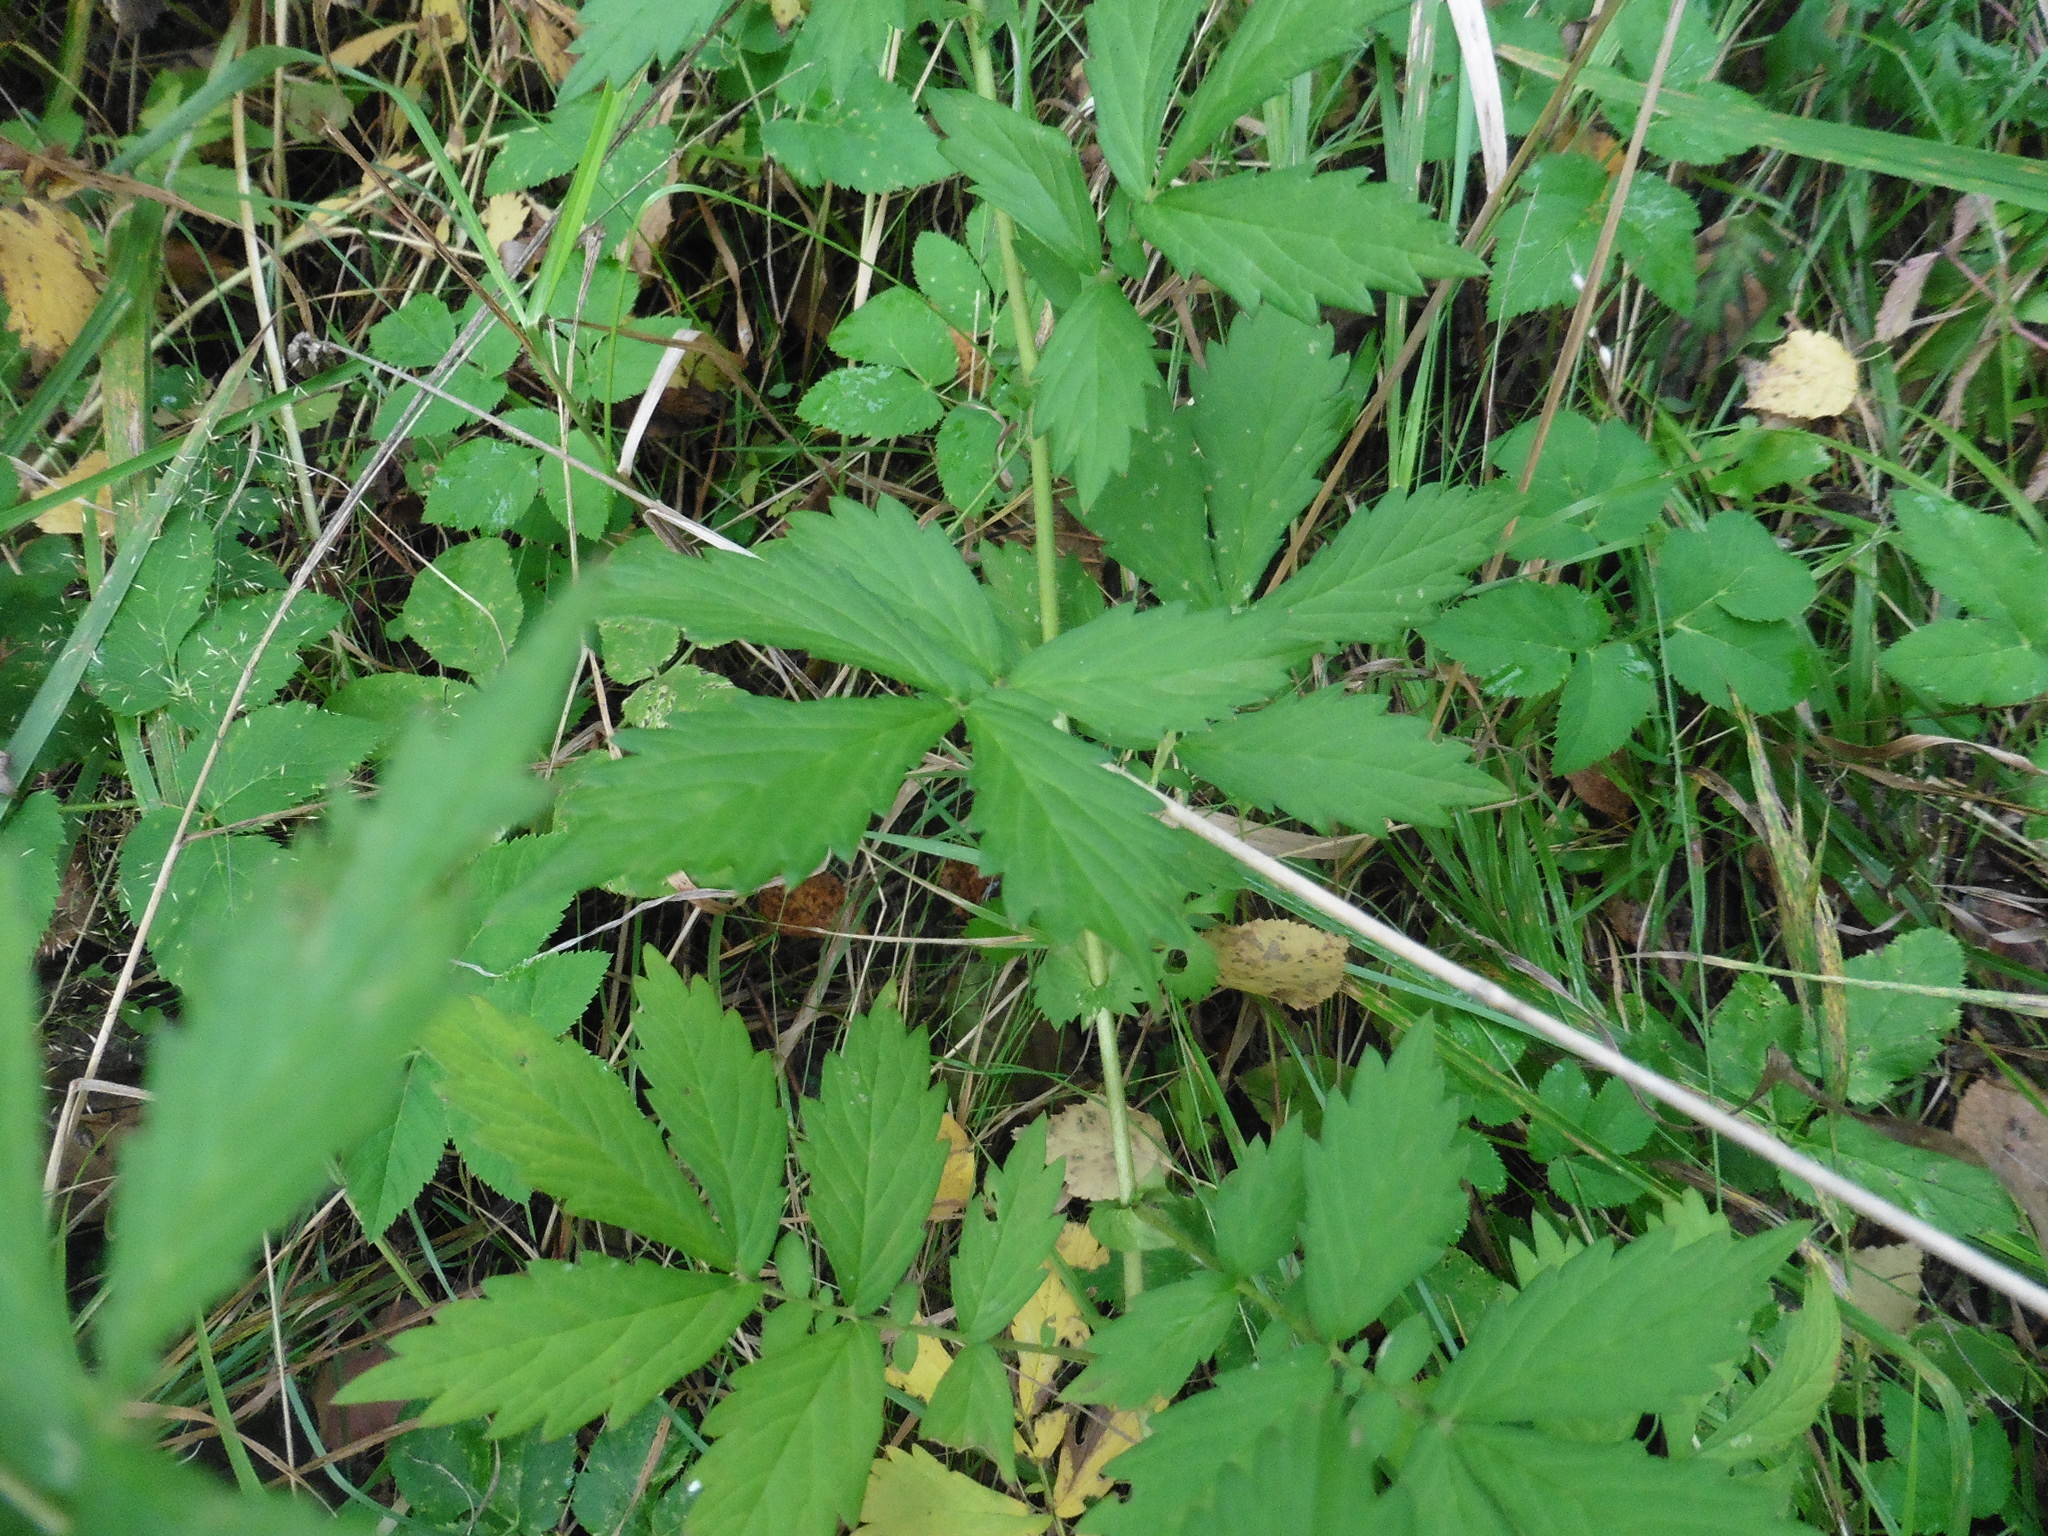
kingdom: Plantae
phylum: Tracheophyta
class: Magnoliopsida
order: Rosales
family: Rosaceae
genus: Agrimonia
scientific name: Agrimonia pilosa
